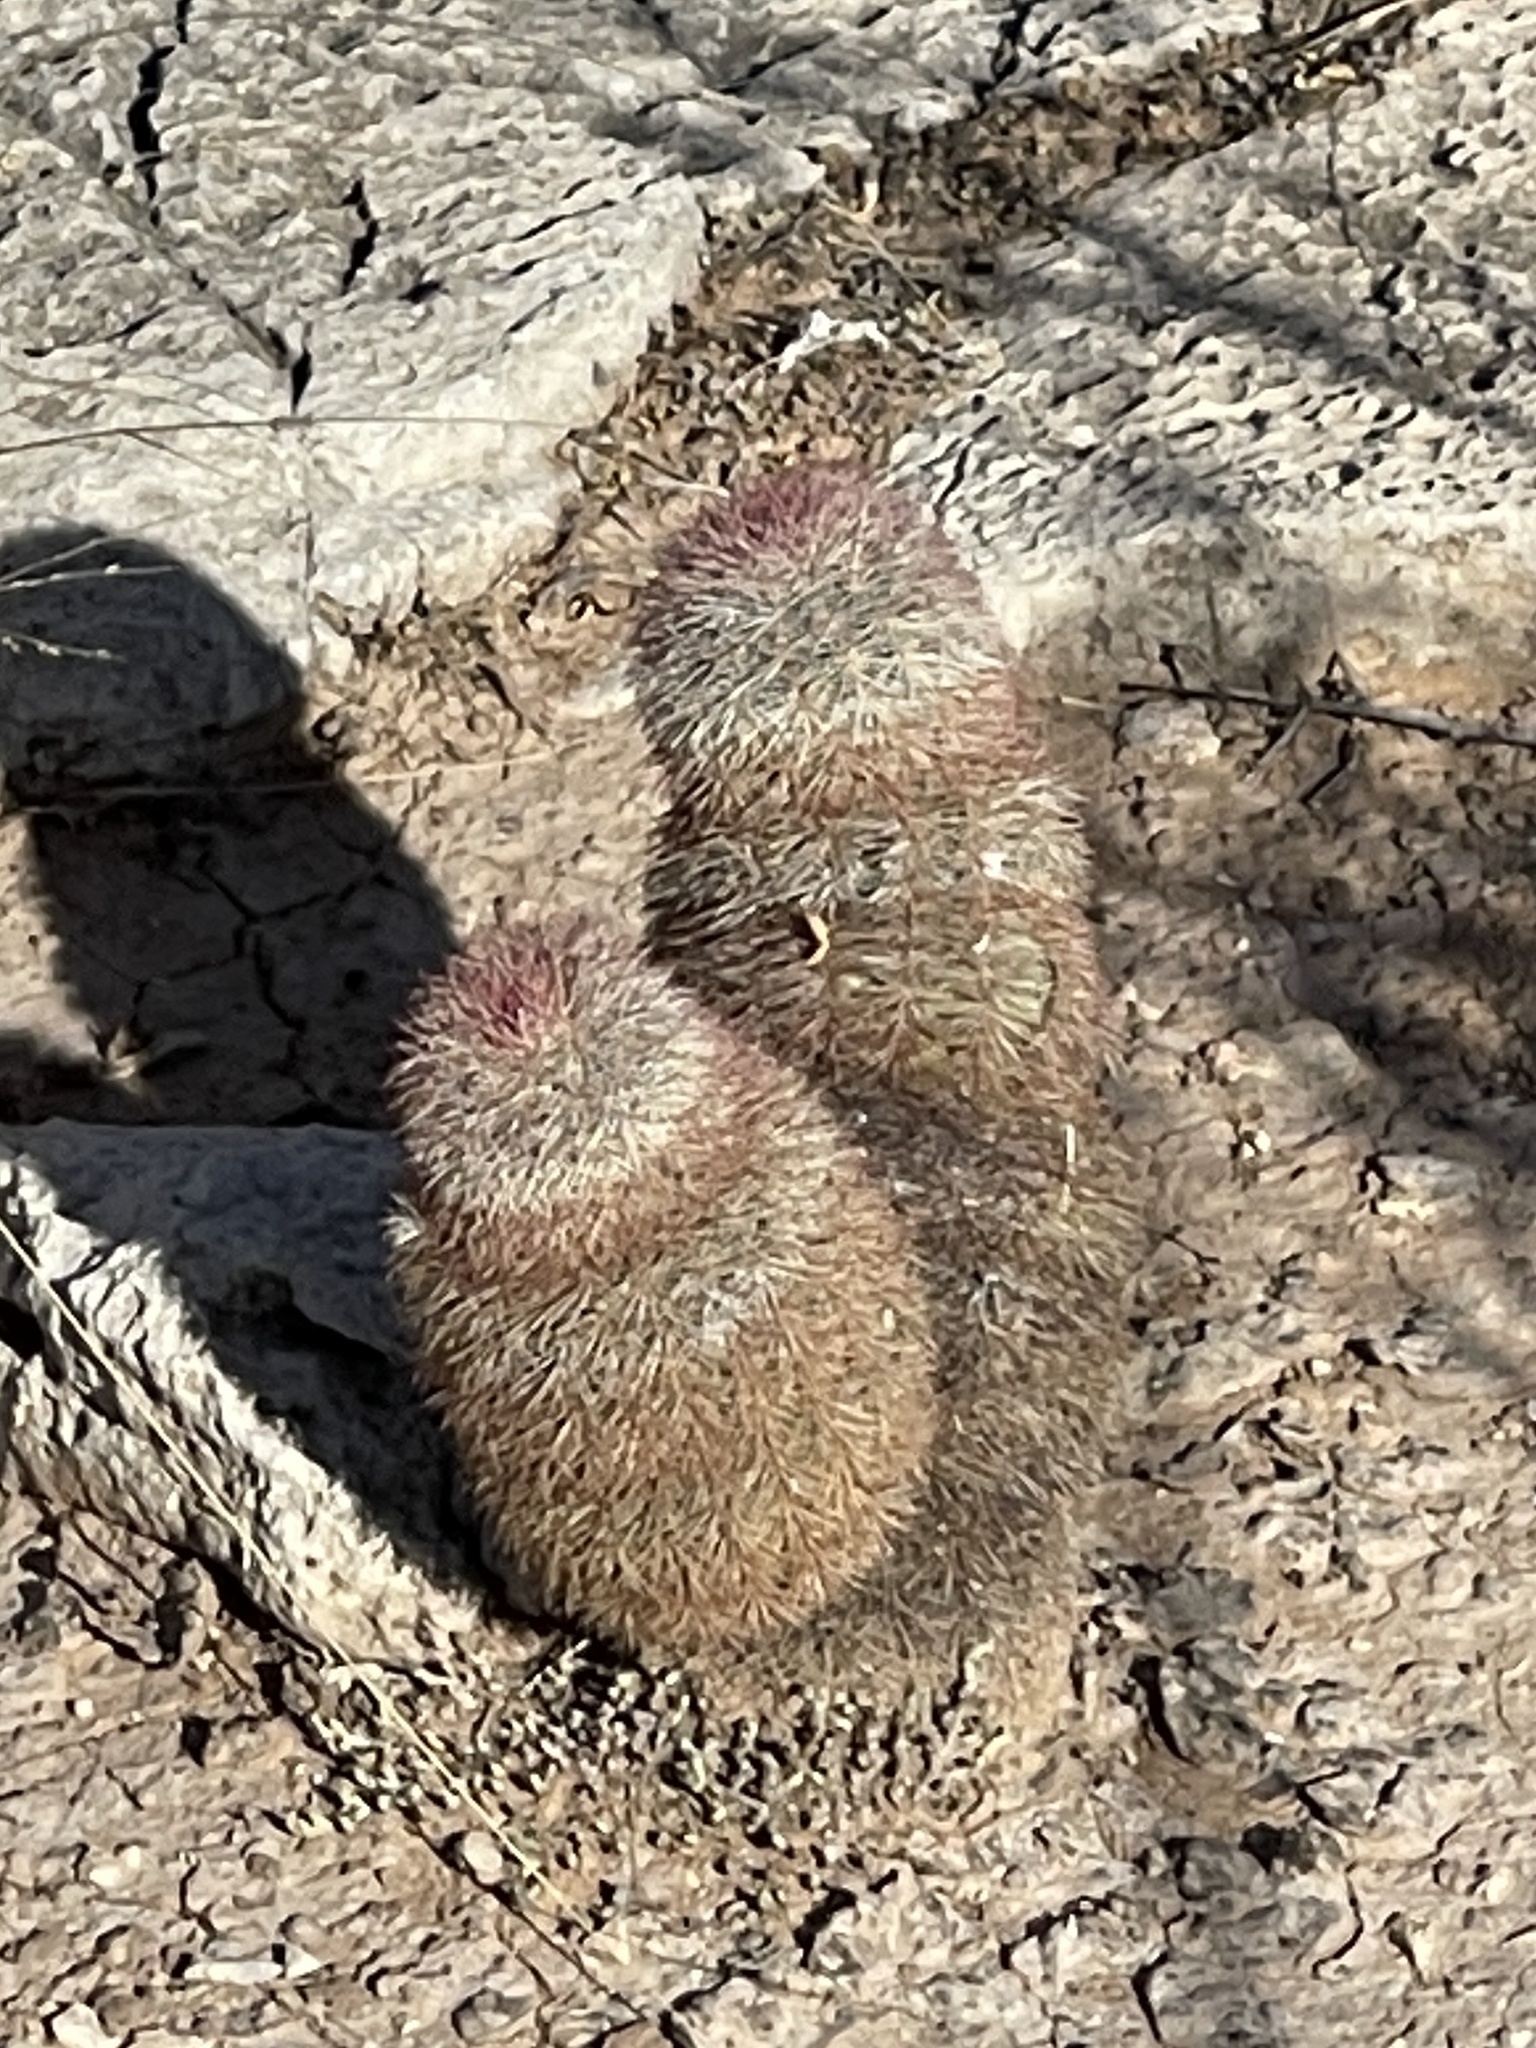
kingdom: Plantae
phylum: Tracheophyta
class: Magnoliopsida
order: Caryophyllales
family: Cactaceae
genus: Echinocereus
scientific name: Echinocereus dasyacanthus
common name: Spiny hedgehog cactus
